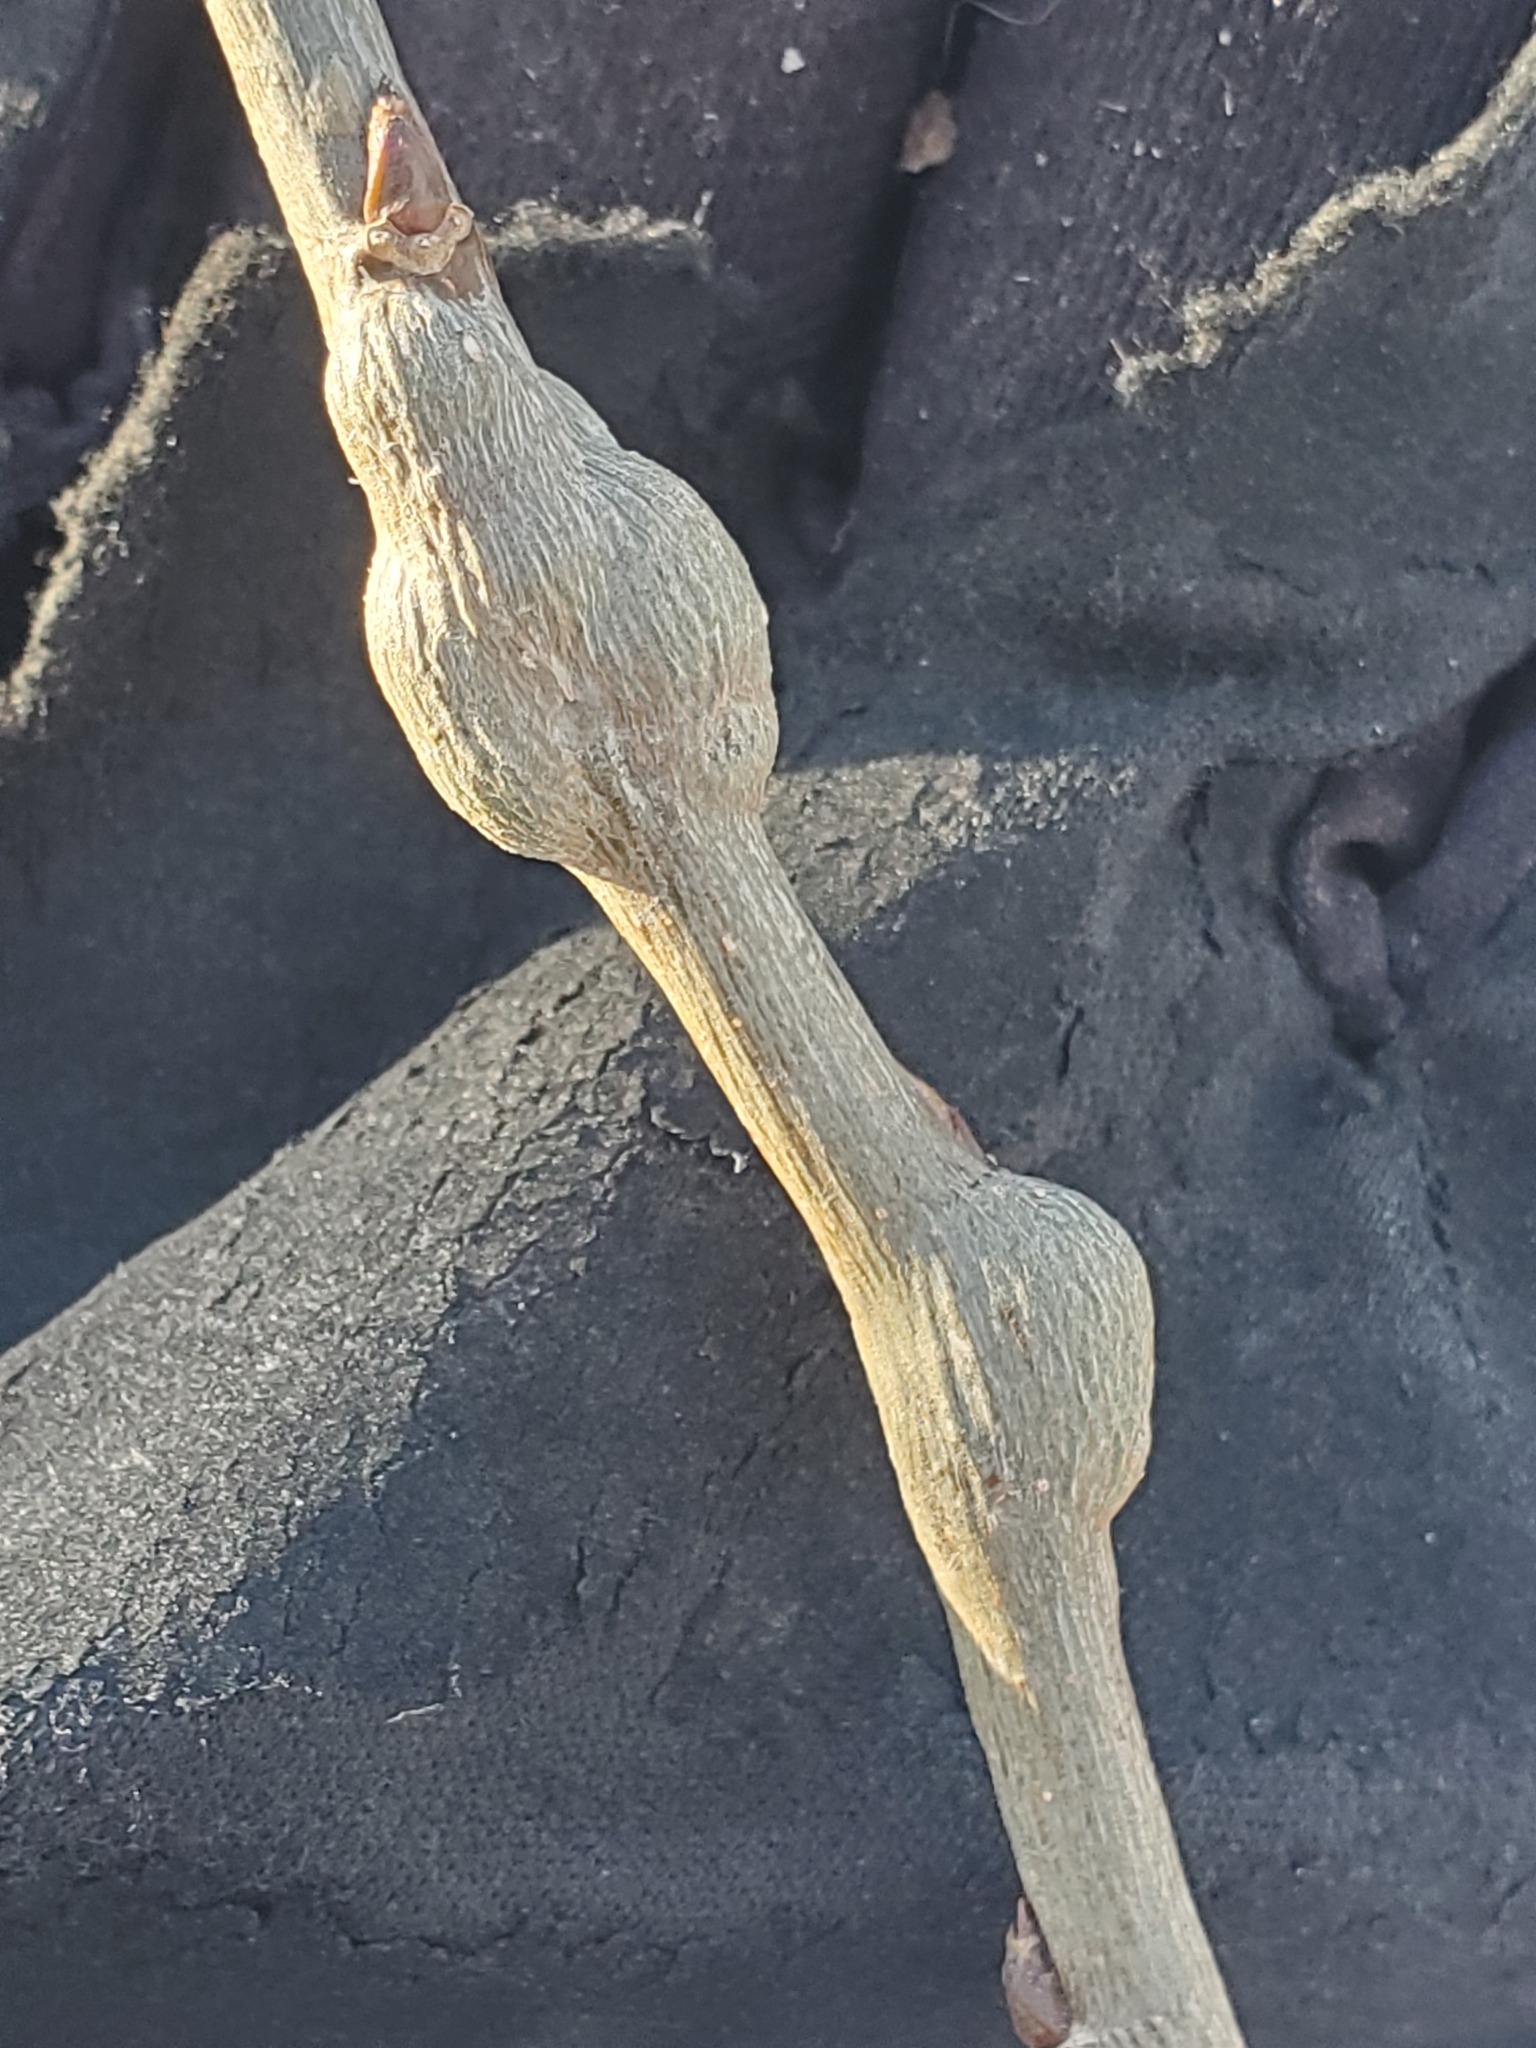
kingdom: Animalia
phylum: Arthropoda
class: Insecta
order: Diptera
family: Agromyzidae
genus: Euhexomyza
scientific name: Euhexomyza schineri
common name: Poplar twiggall fly
